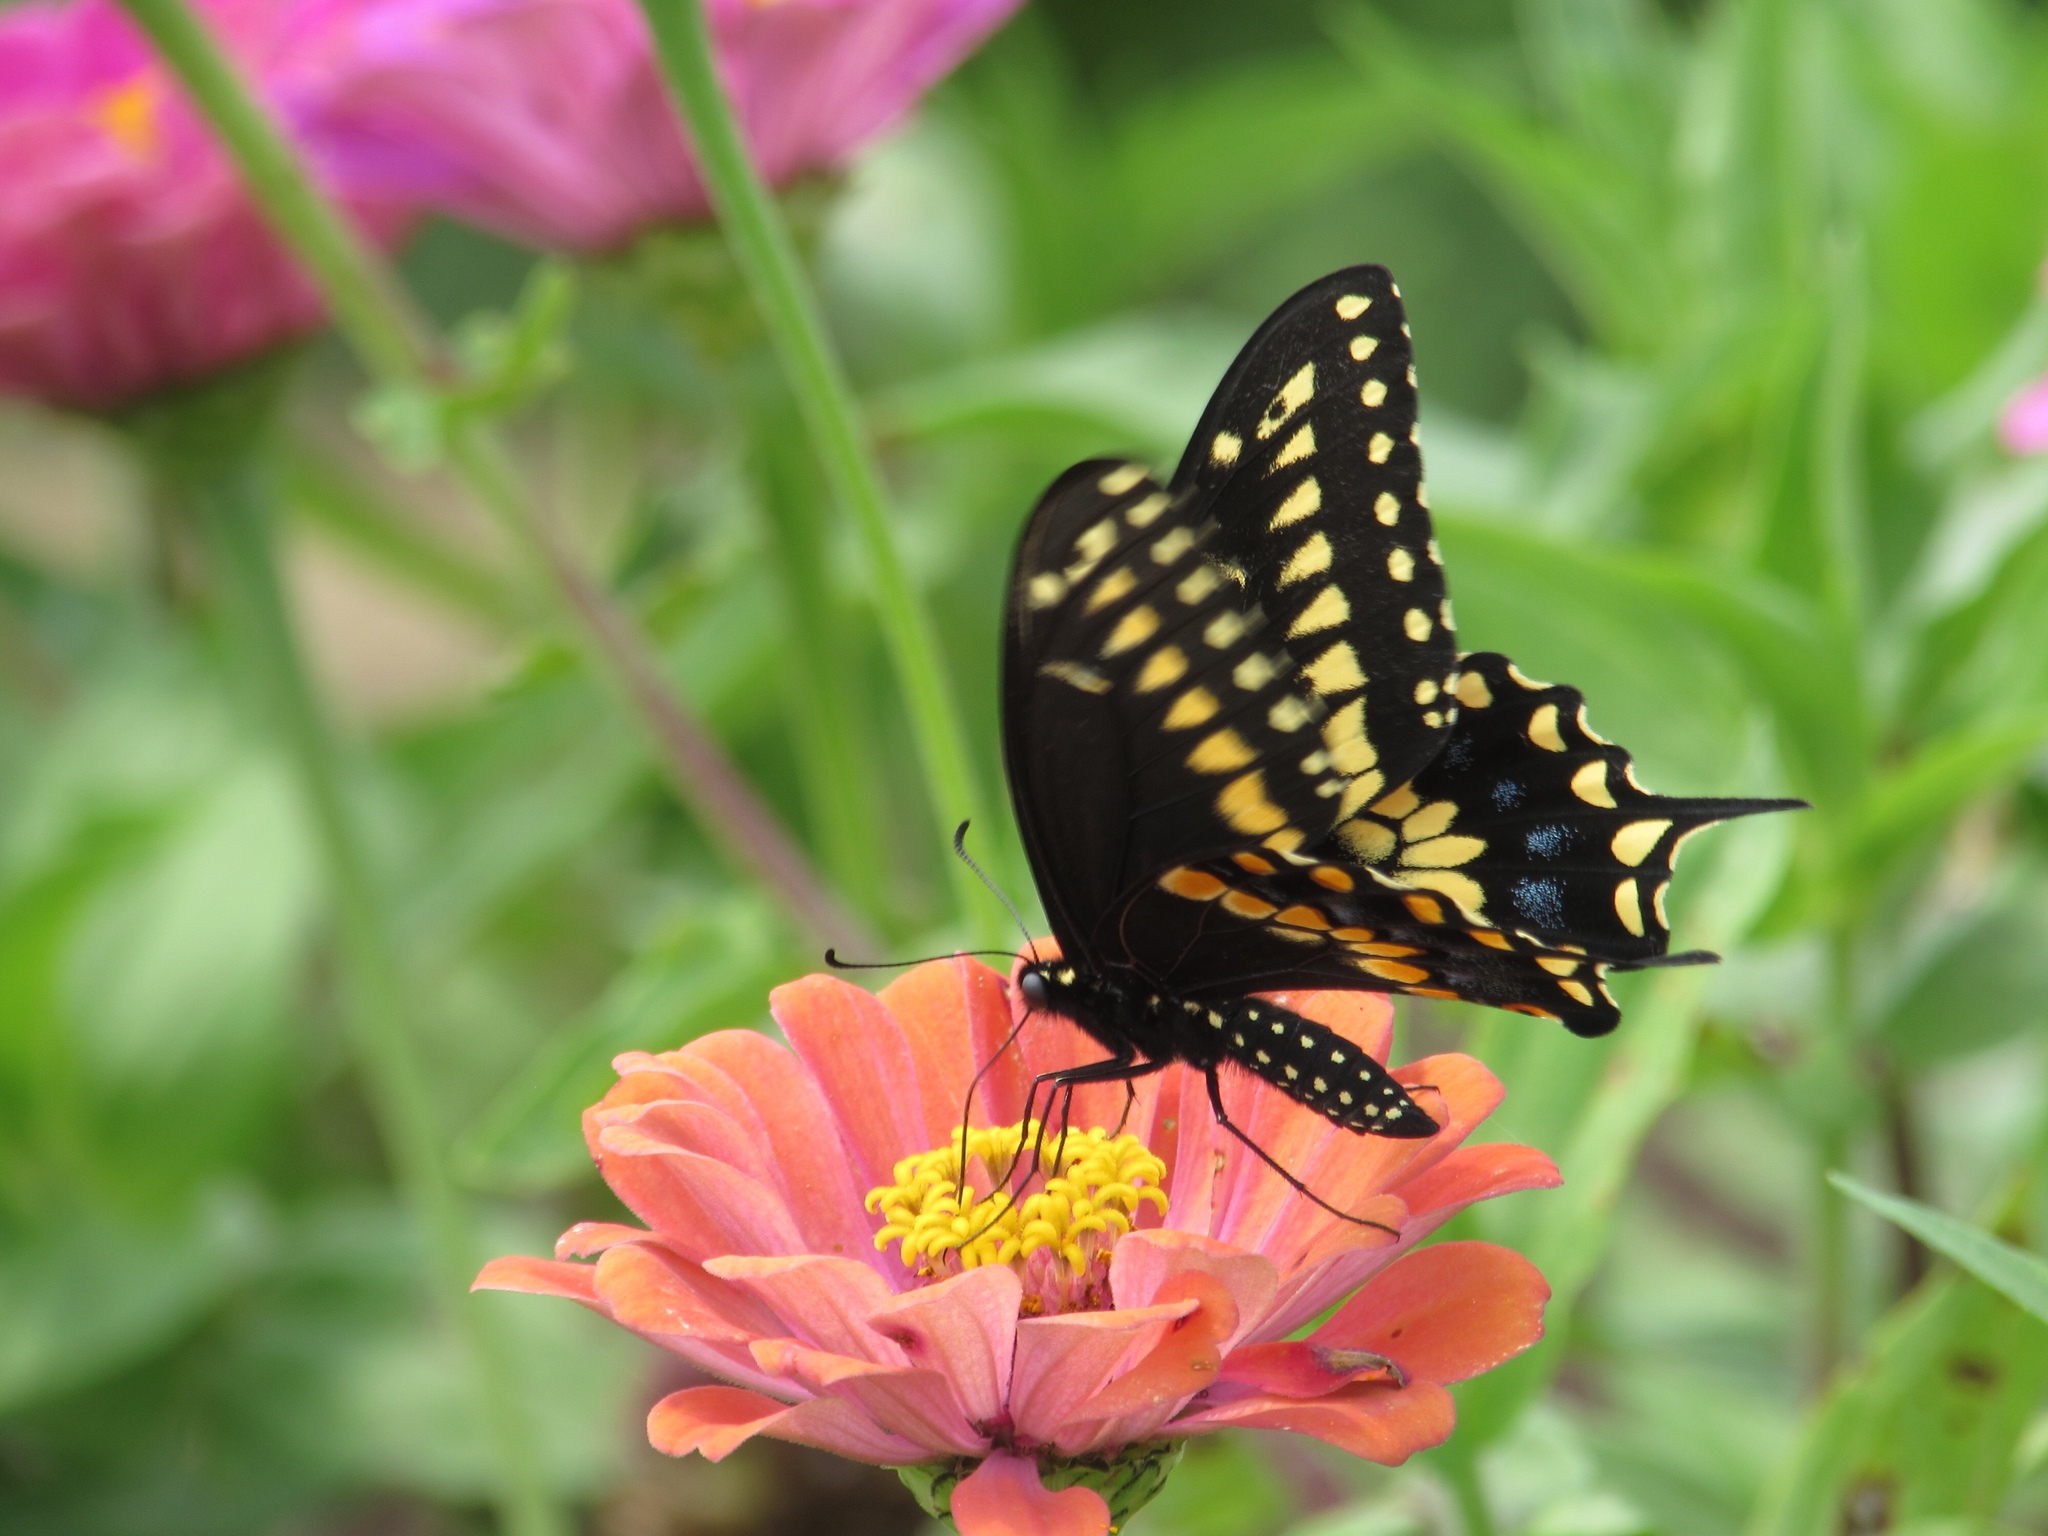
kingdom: Animalia
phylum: Arthropoda
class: Insecta
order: Lepidoptera
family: Papilionidae
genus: Papilio
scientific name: Papilio polyxenes
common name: Black swallowtail
